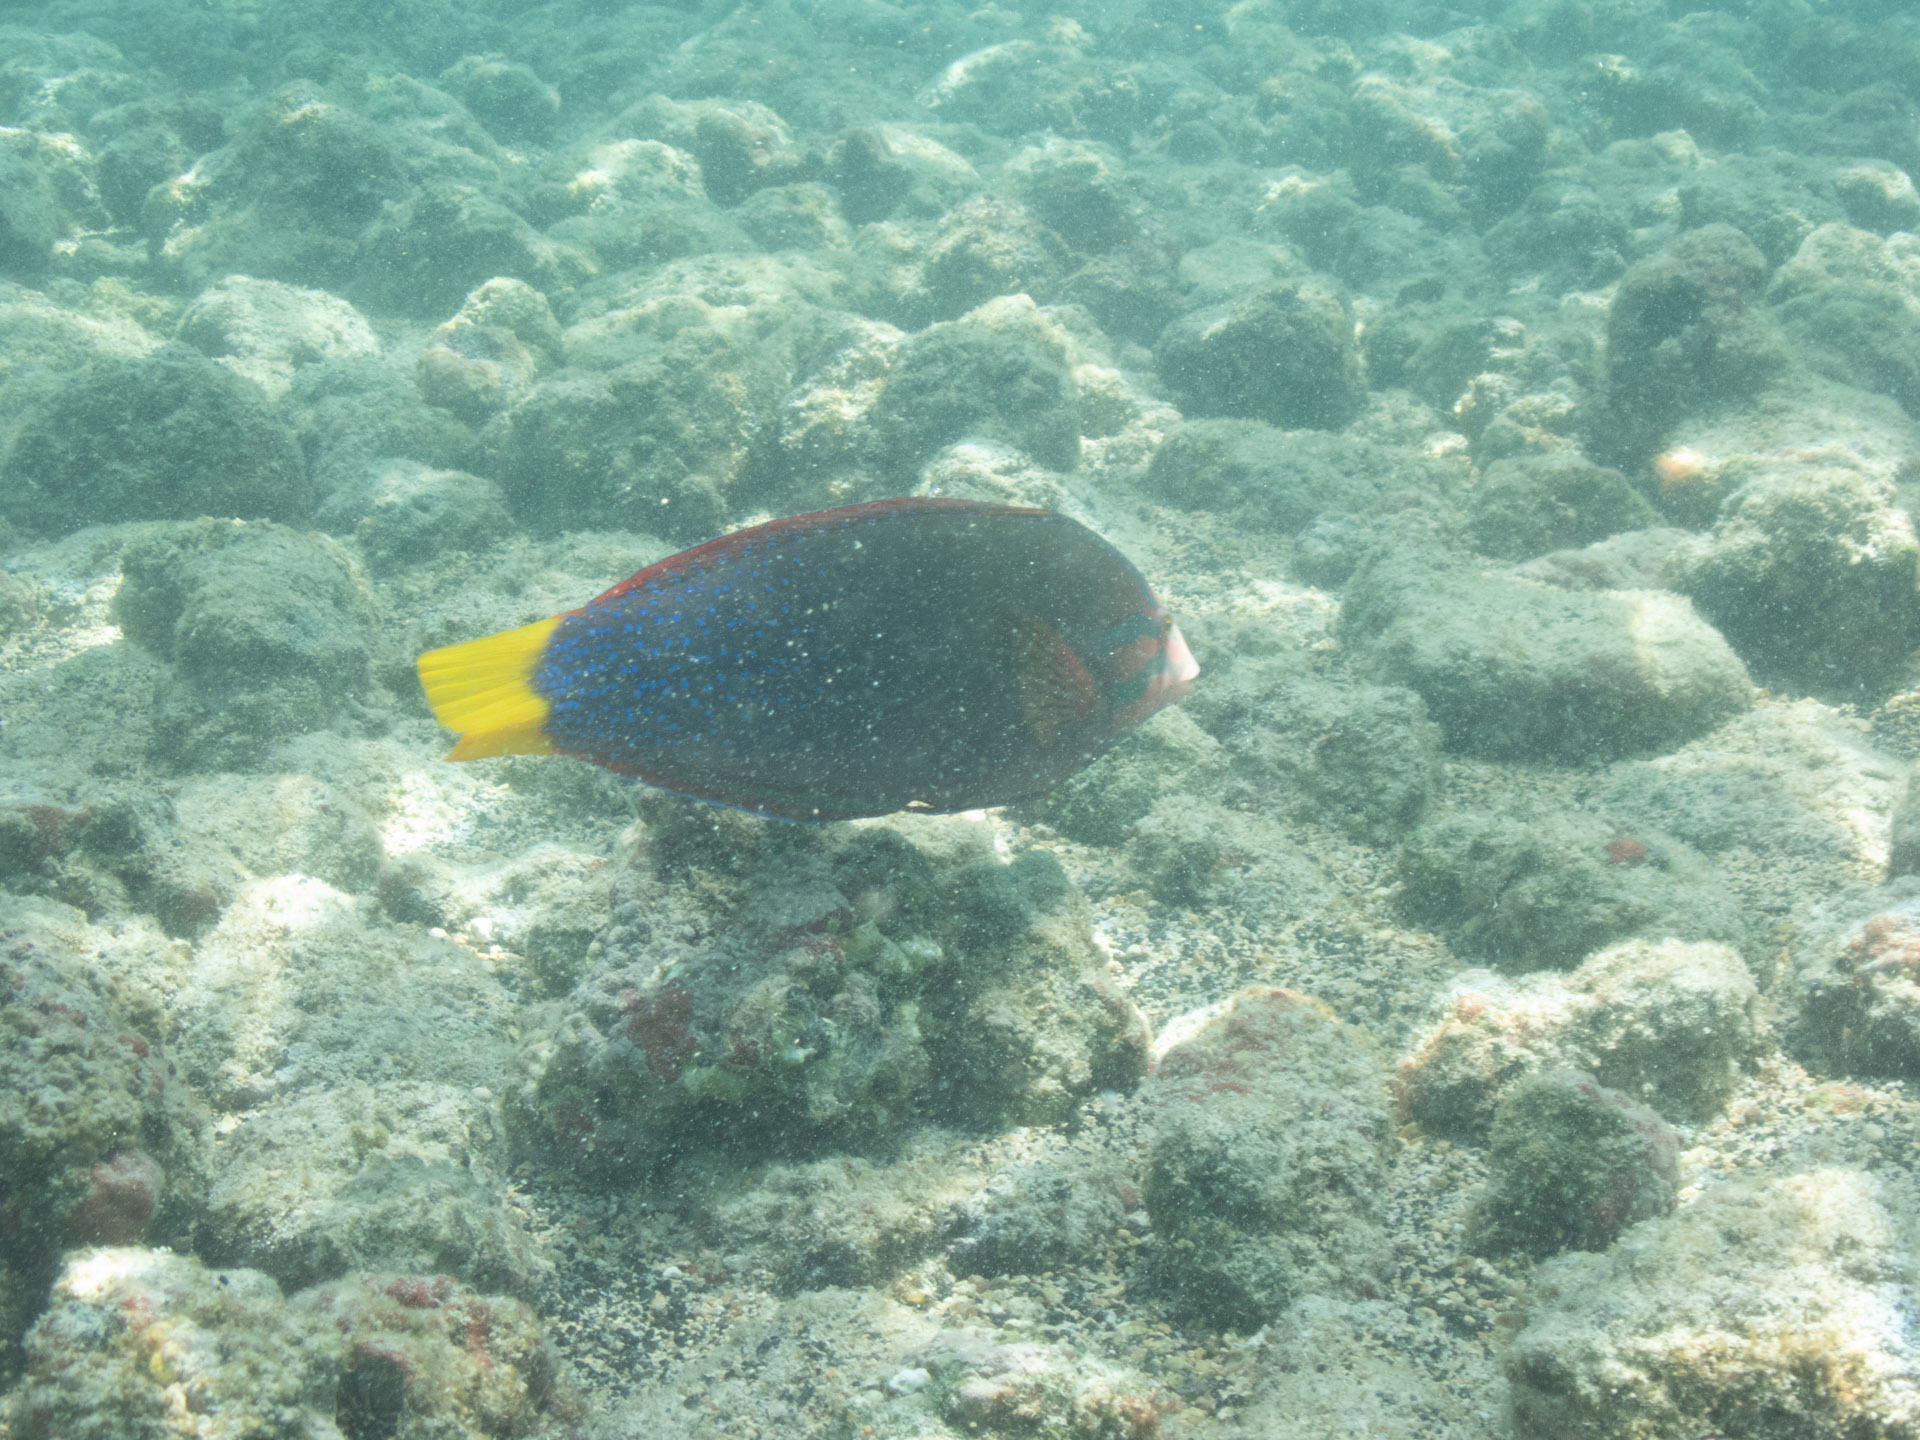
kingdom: Animalia
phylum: Chordata
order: Perciformes
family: Labridae
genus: Coris
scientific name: Coris gaimard
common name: Yellowtail coris
